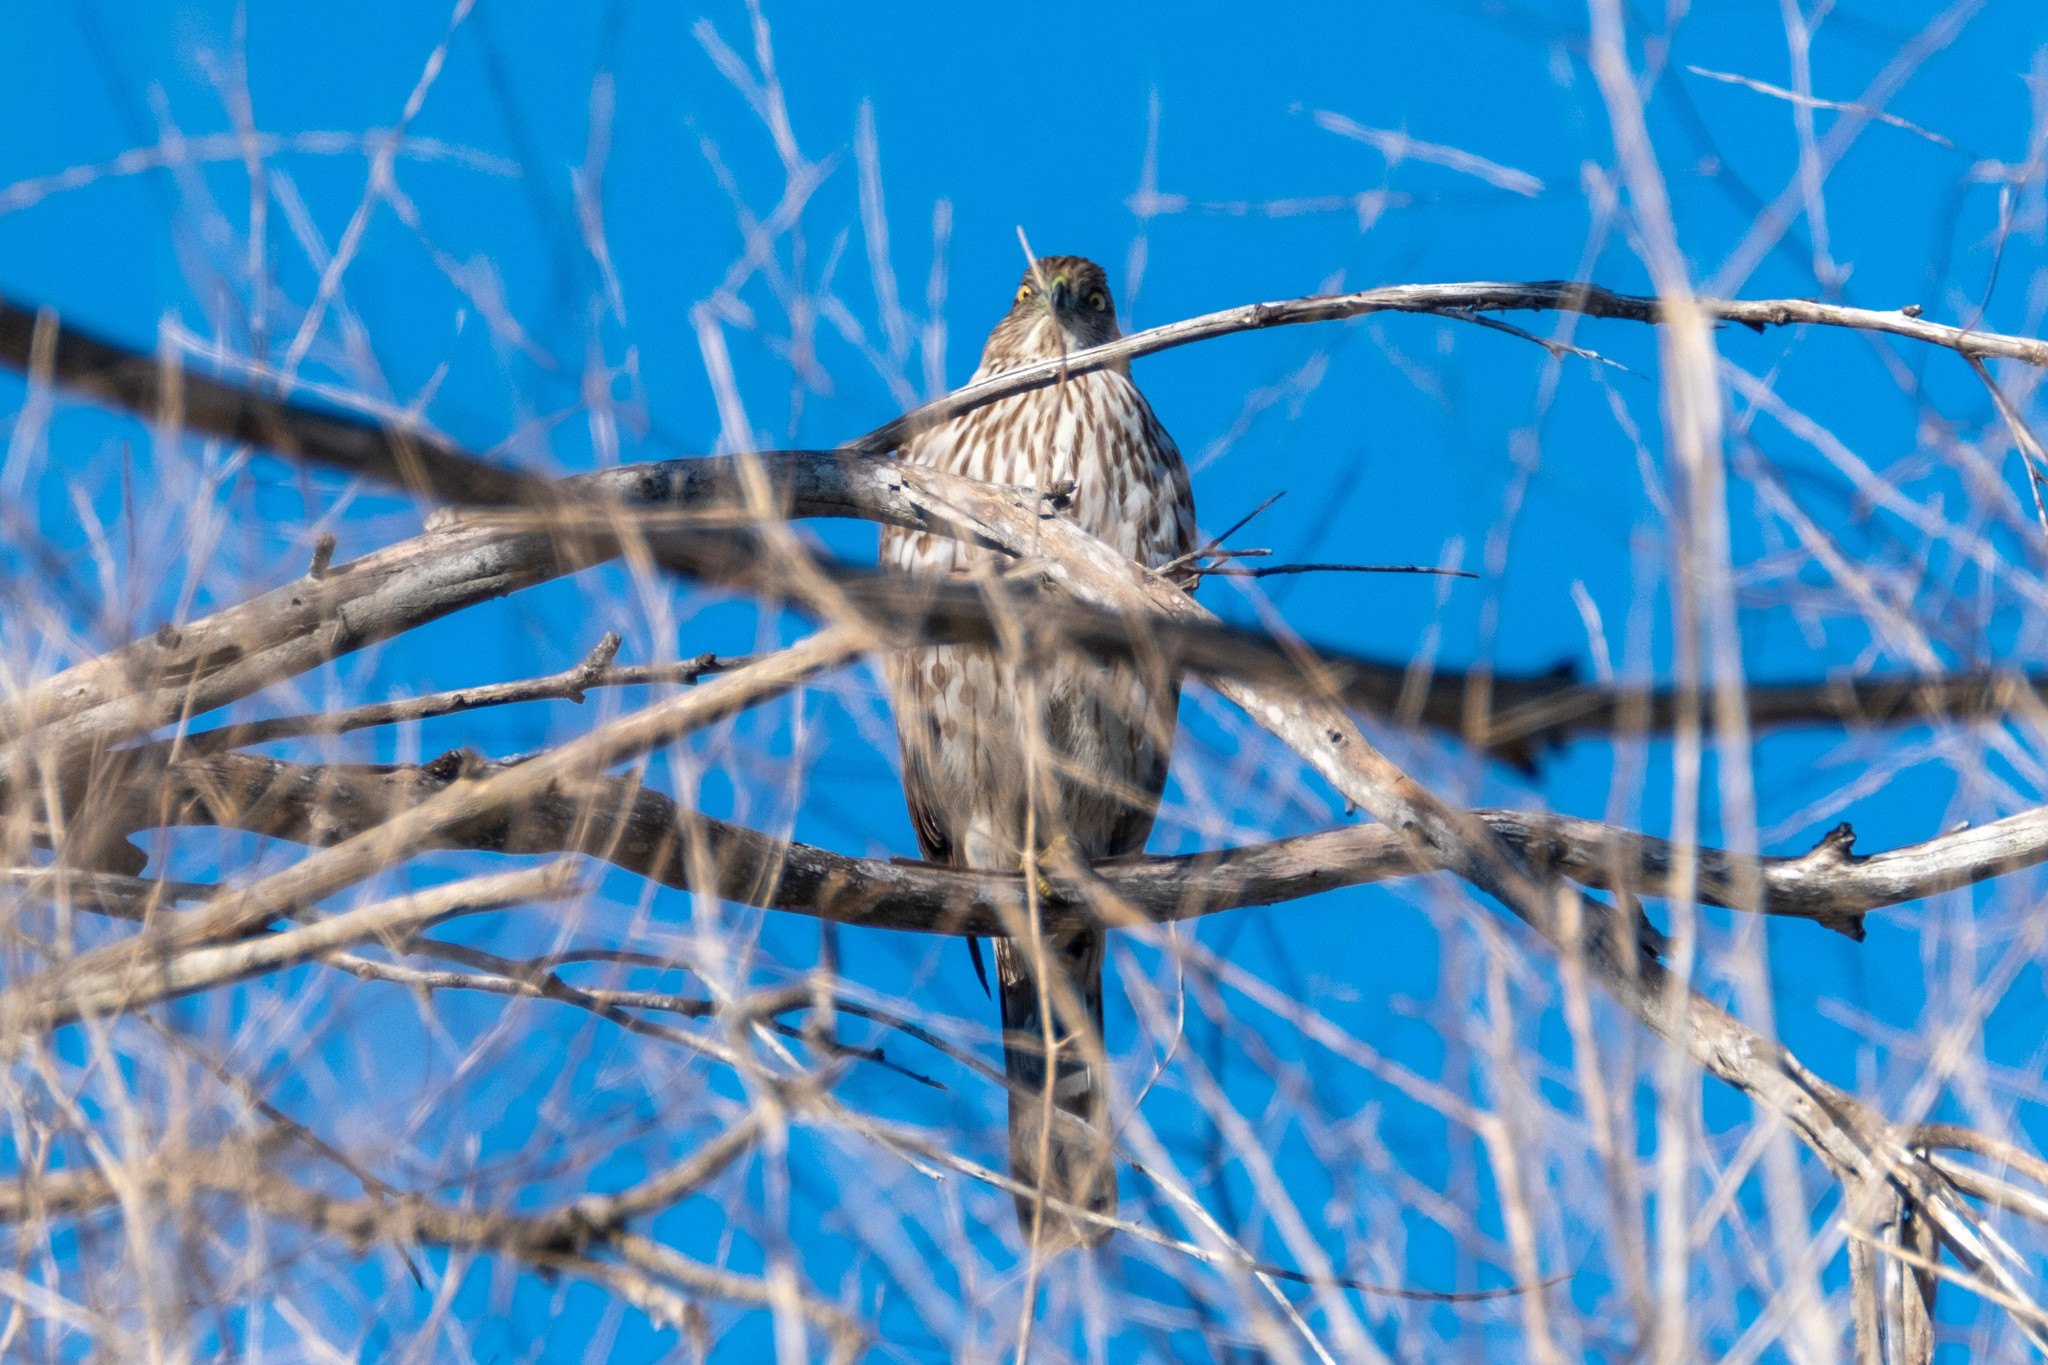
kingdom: Animalia
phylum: Chordata
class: Aves
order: Accipitriformes
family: Accipitridae
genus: Accipiter
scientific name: Accipiter cooperii
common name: Cooper's hawk
